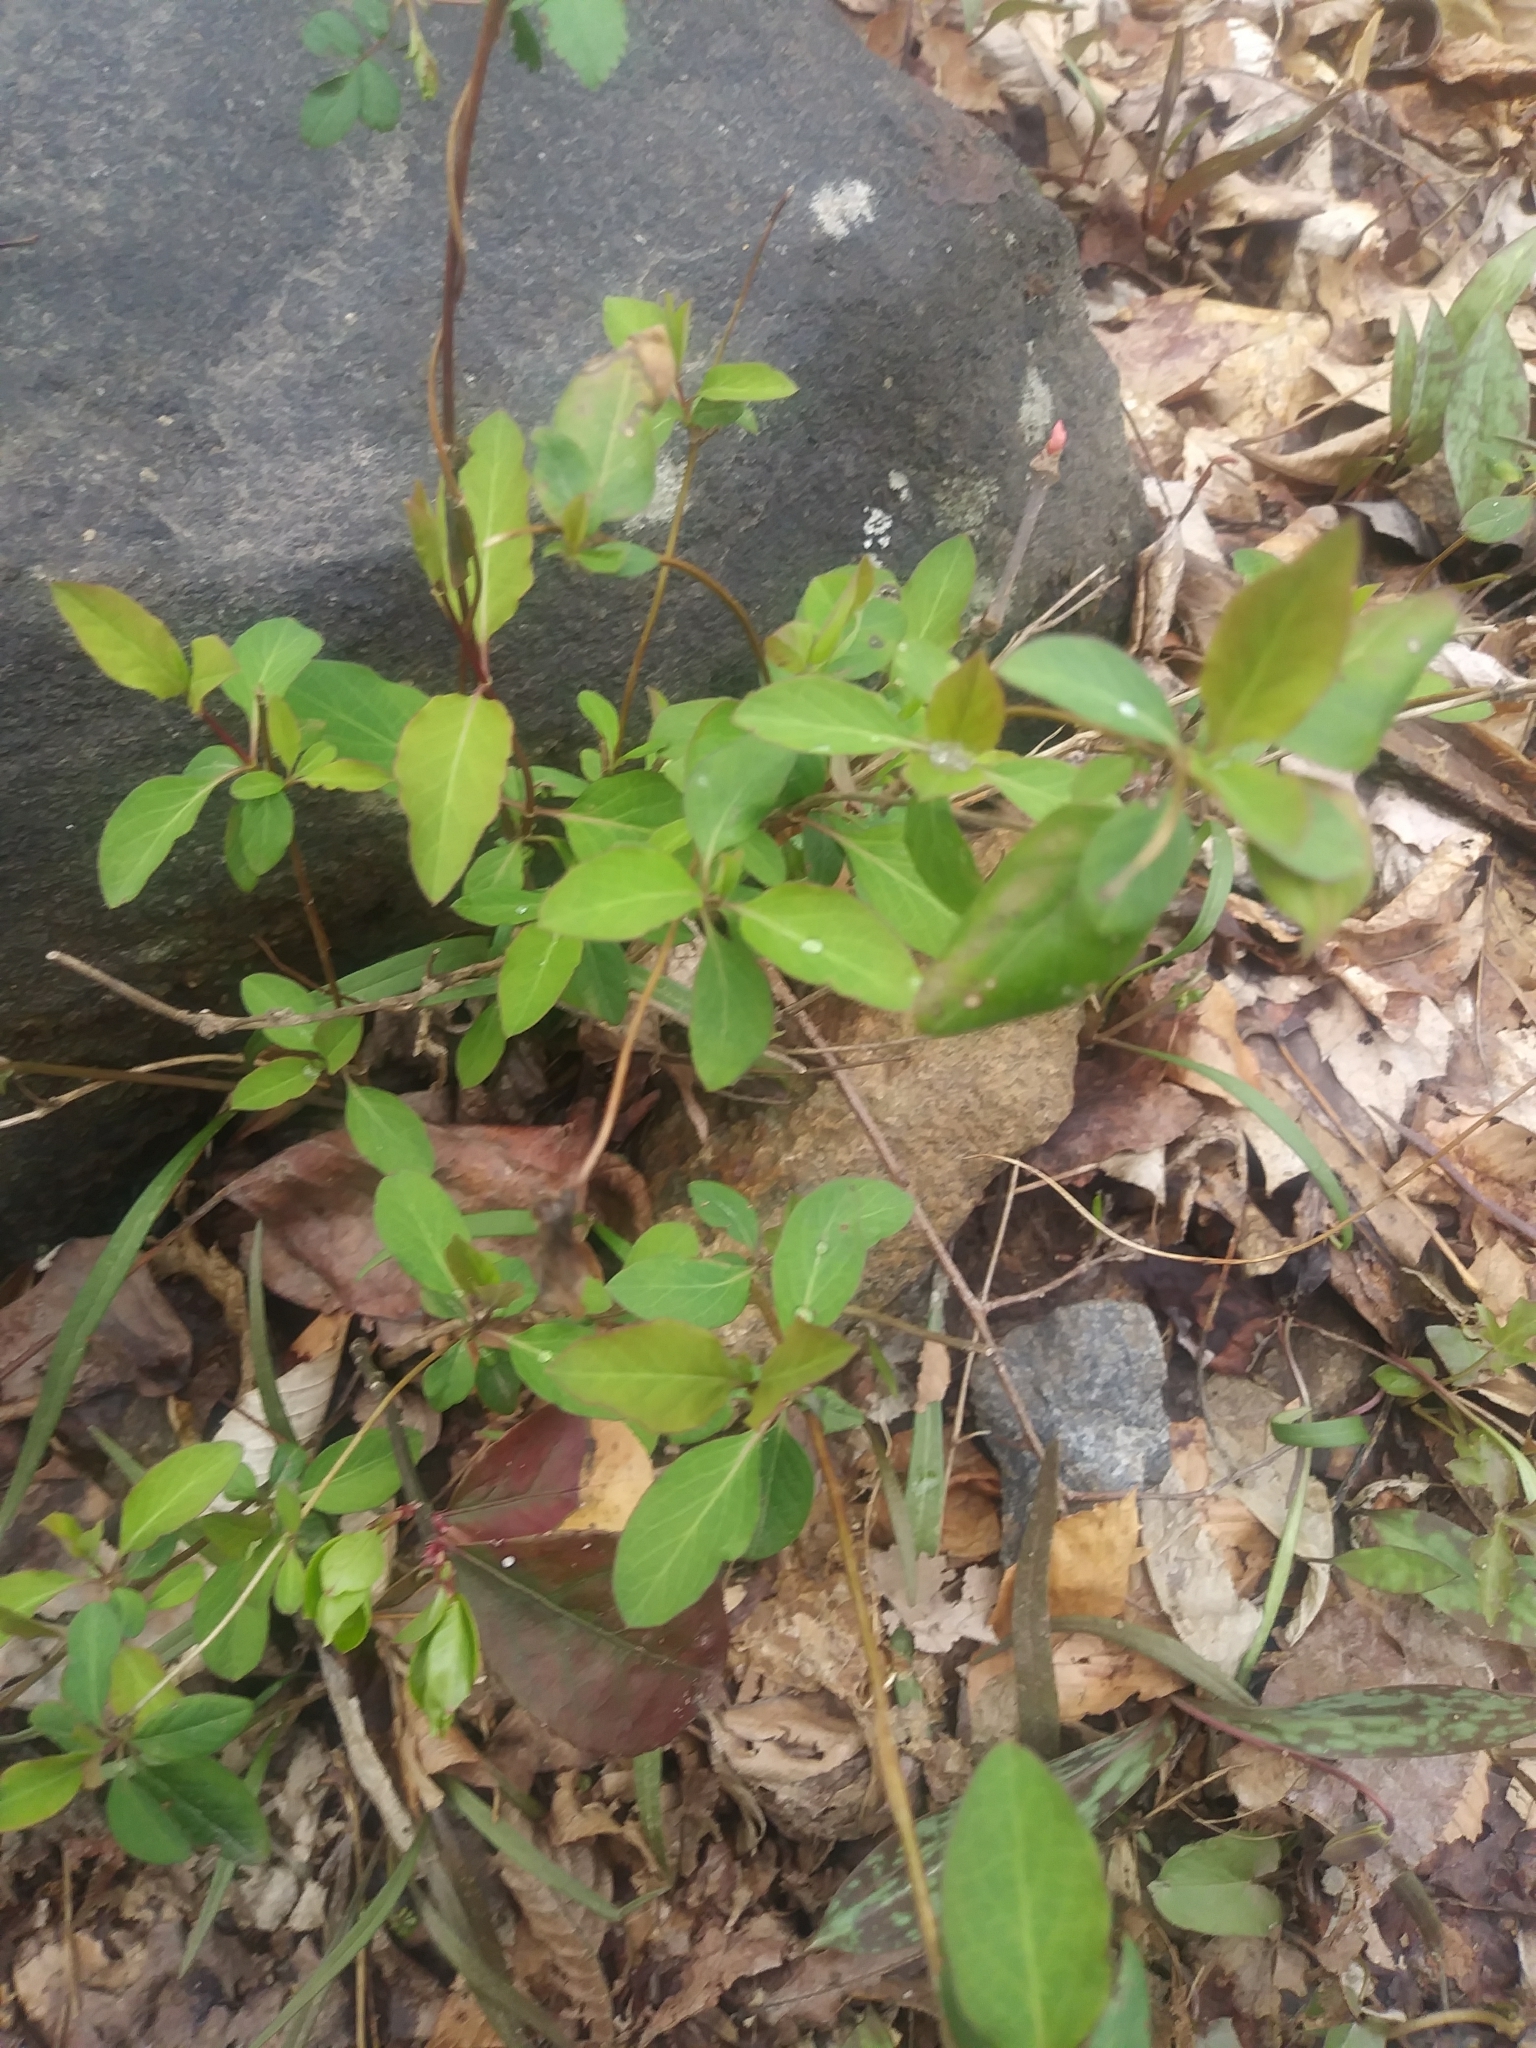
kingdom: Plantae
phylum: Tracheophyta
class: Magnoliopsida
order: Dipsacales
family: Caprifoliaceae
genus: Lonicera
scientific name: Lonicera japonica
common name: Japanese honeysuckle
